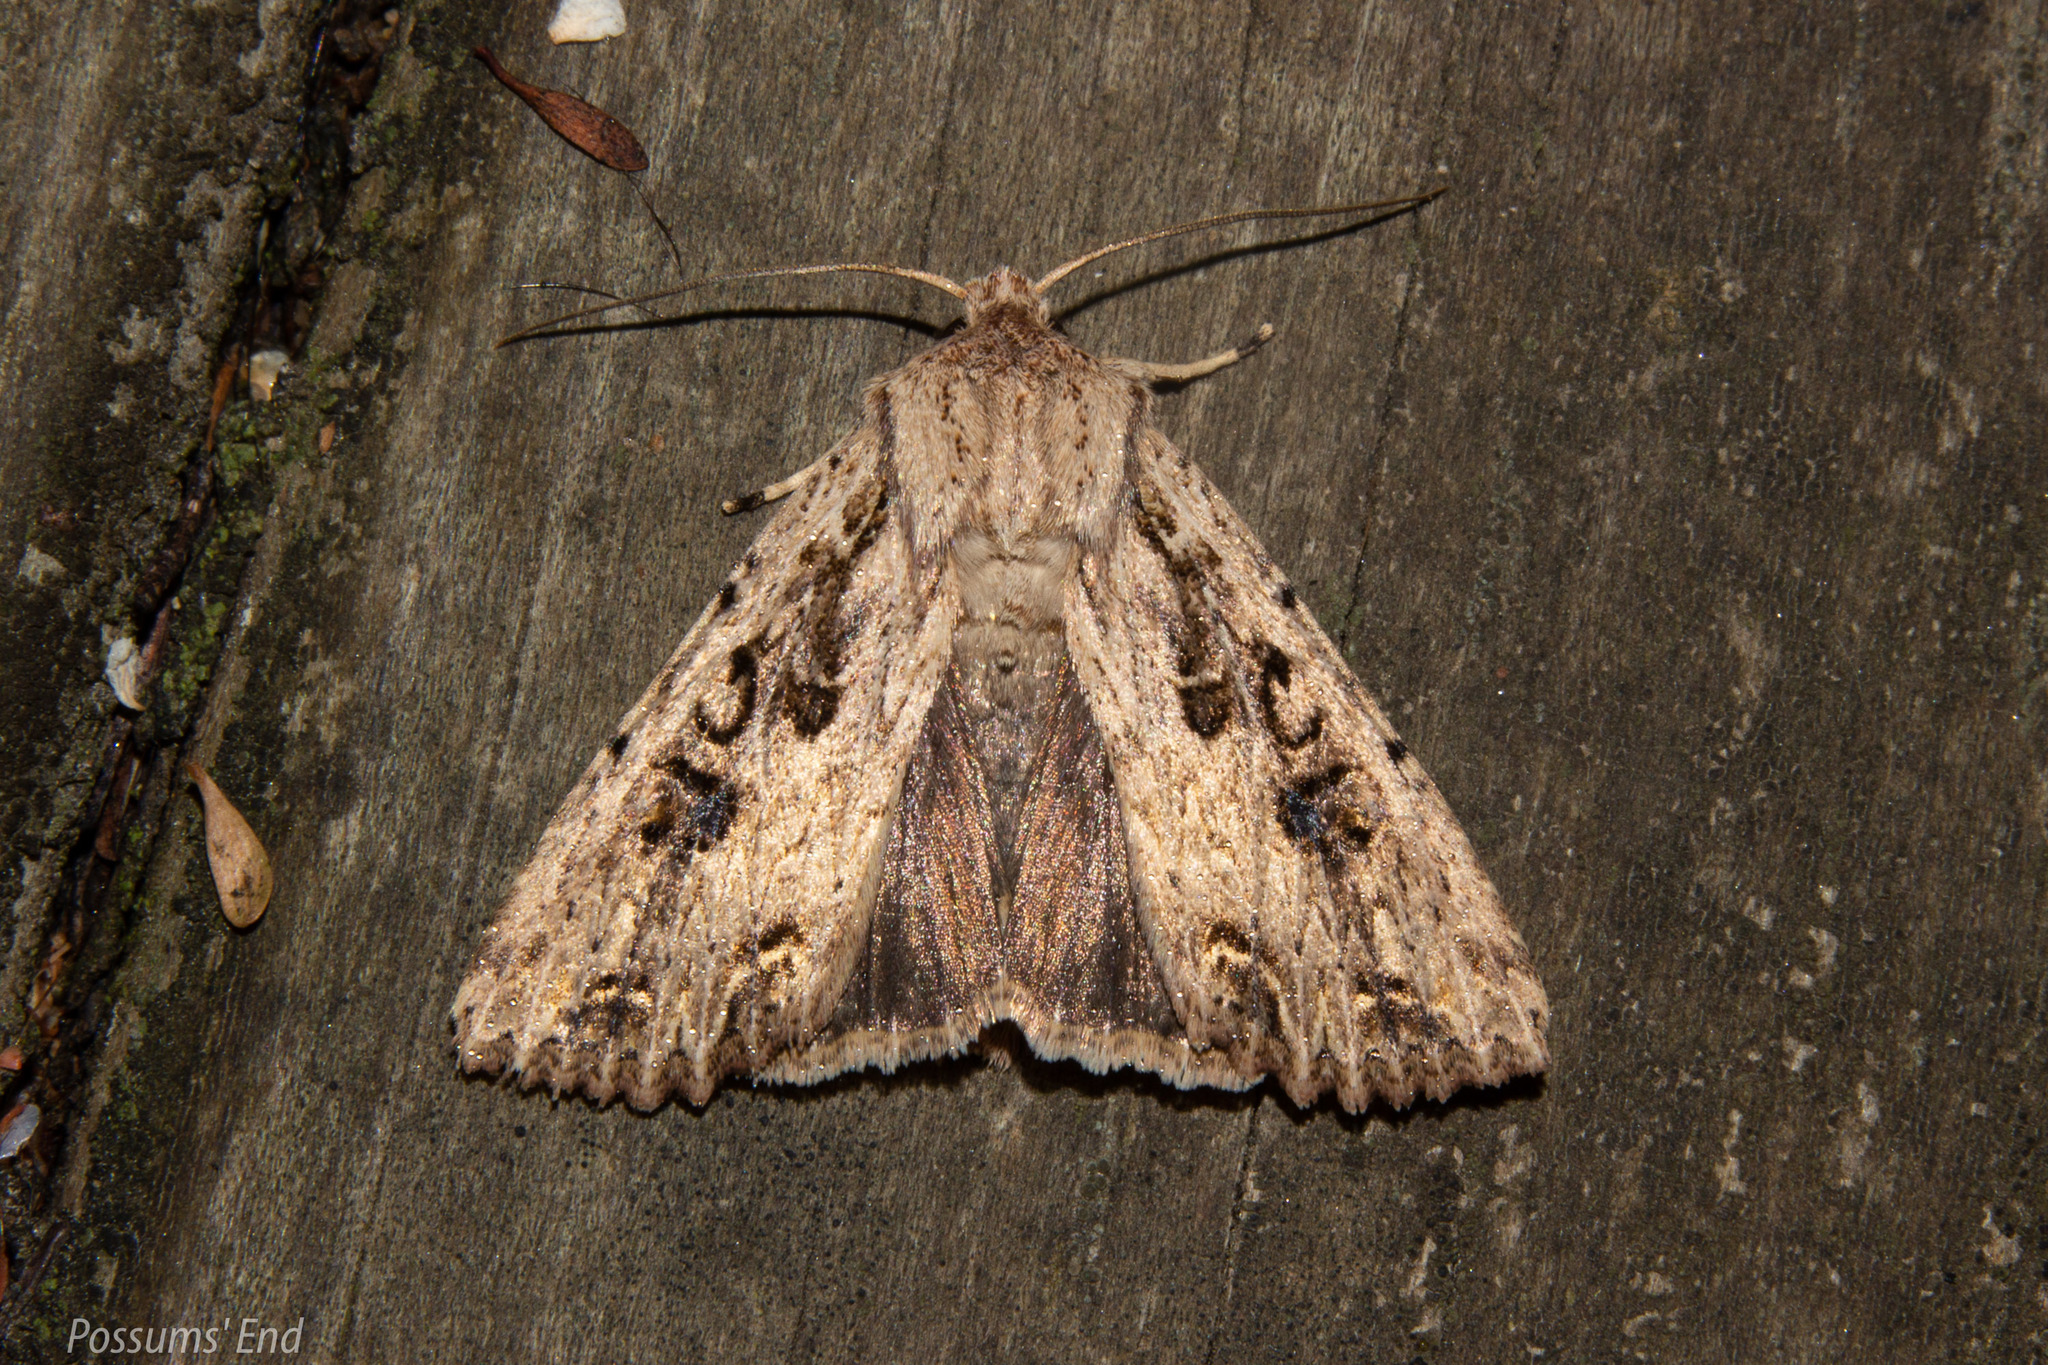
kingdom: Animalia
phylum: Arthropoda
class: Insecta
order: Lepidoptera
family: Noctuidae
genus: Ichneutica
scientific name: Ichneutica lignana
